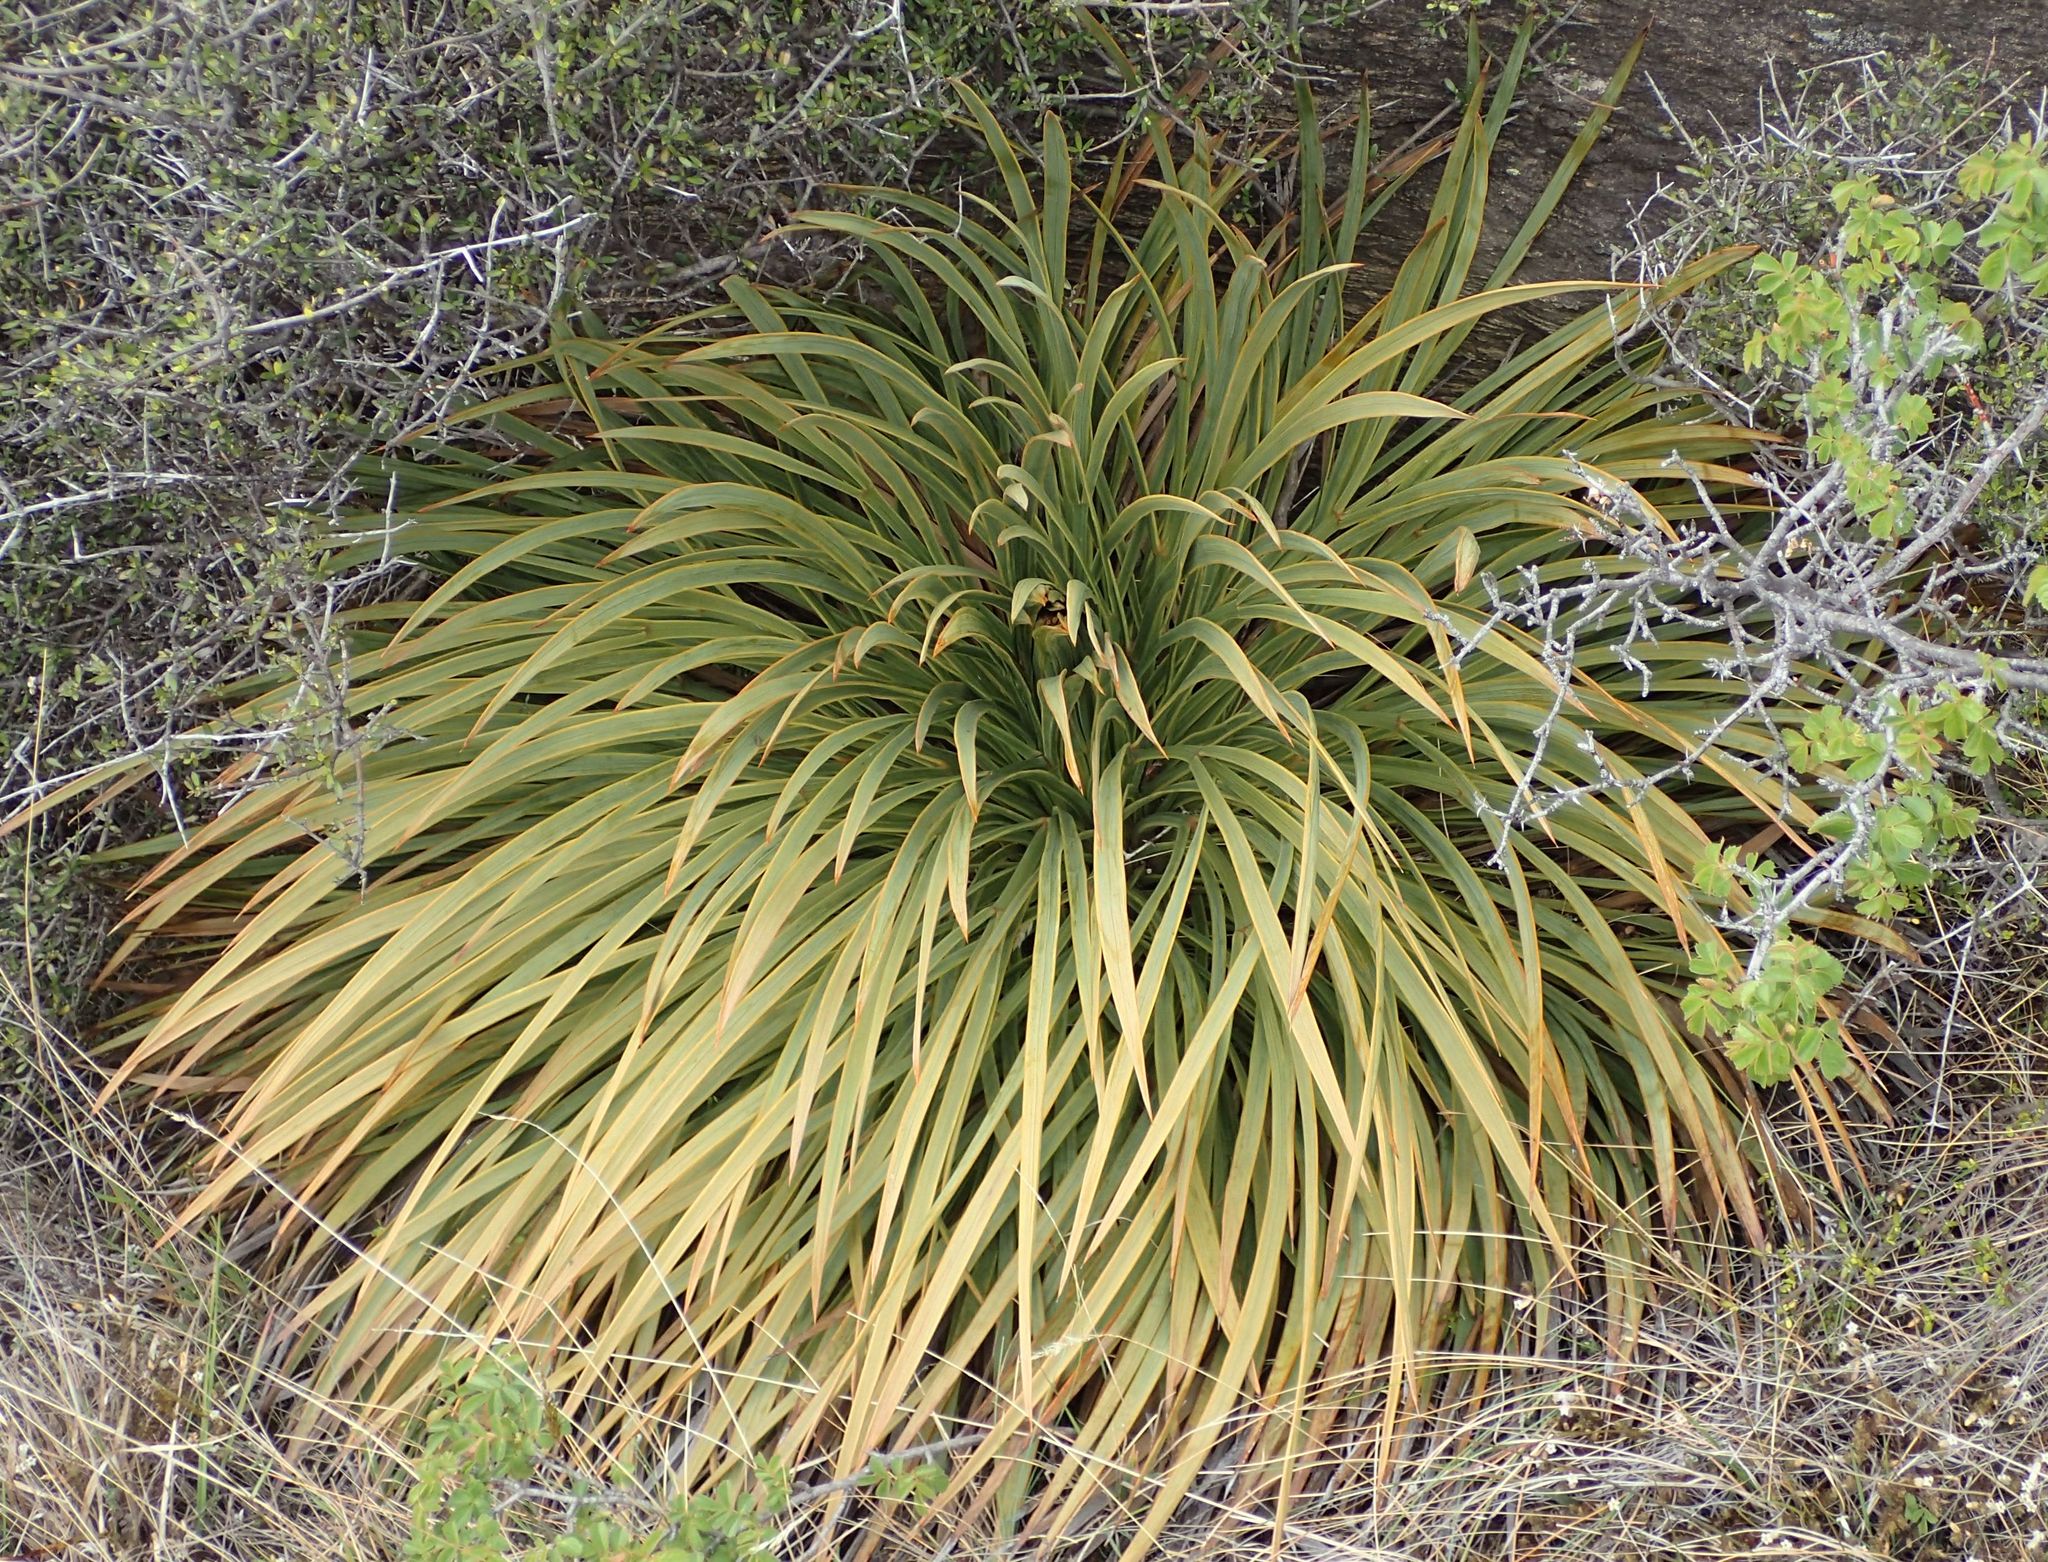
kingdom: Plantae
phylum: Tracheophyta
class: Magnoliopsida
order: Apiales
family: Apiaceae
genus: Aciphylla
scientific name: Aciphylla aurea
